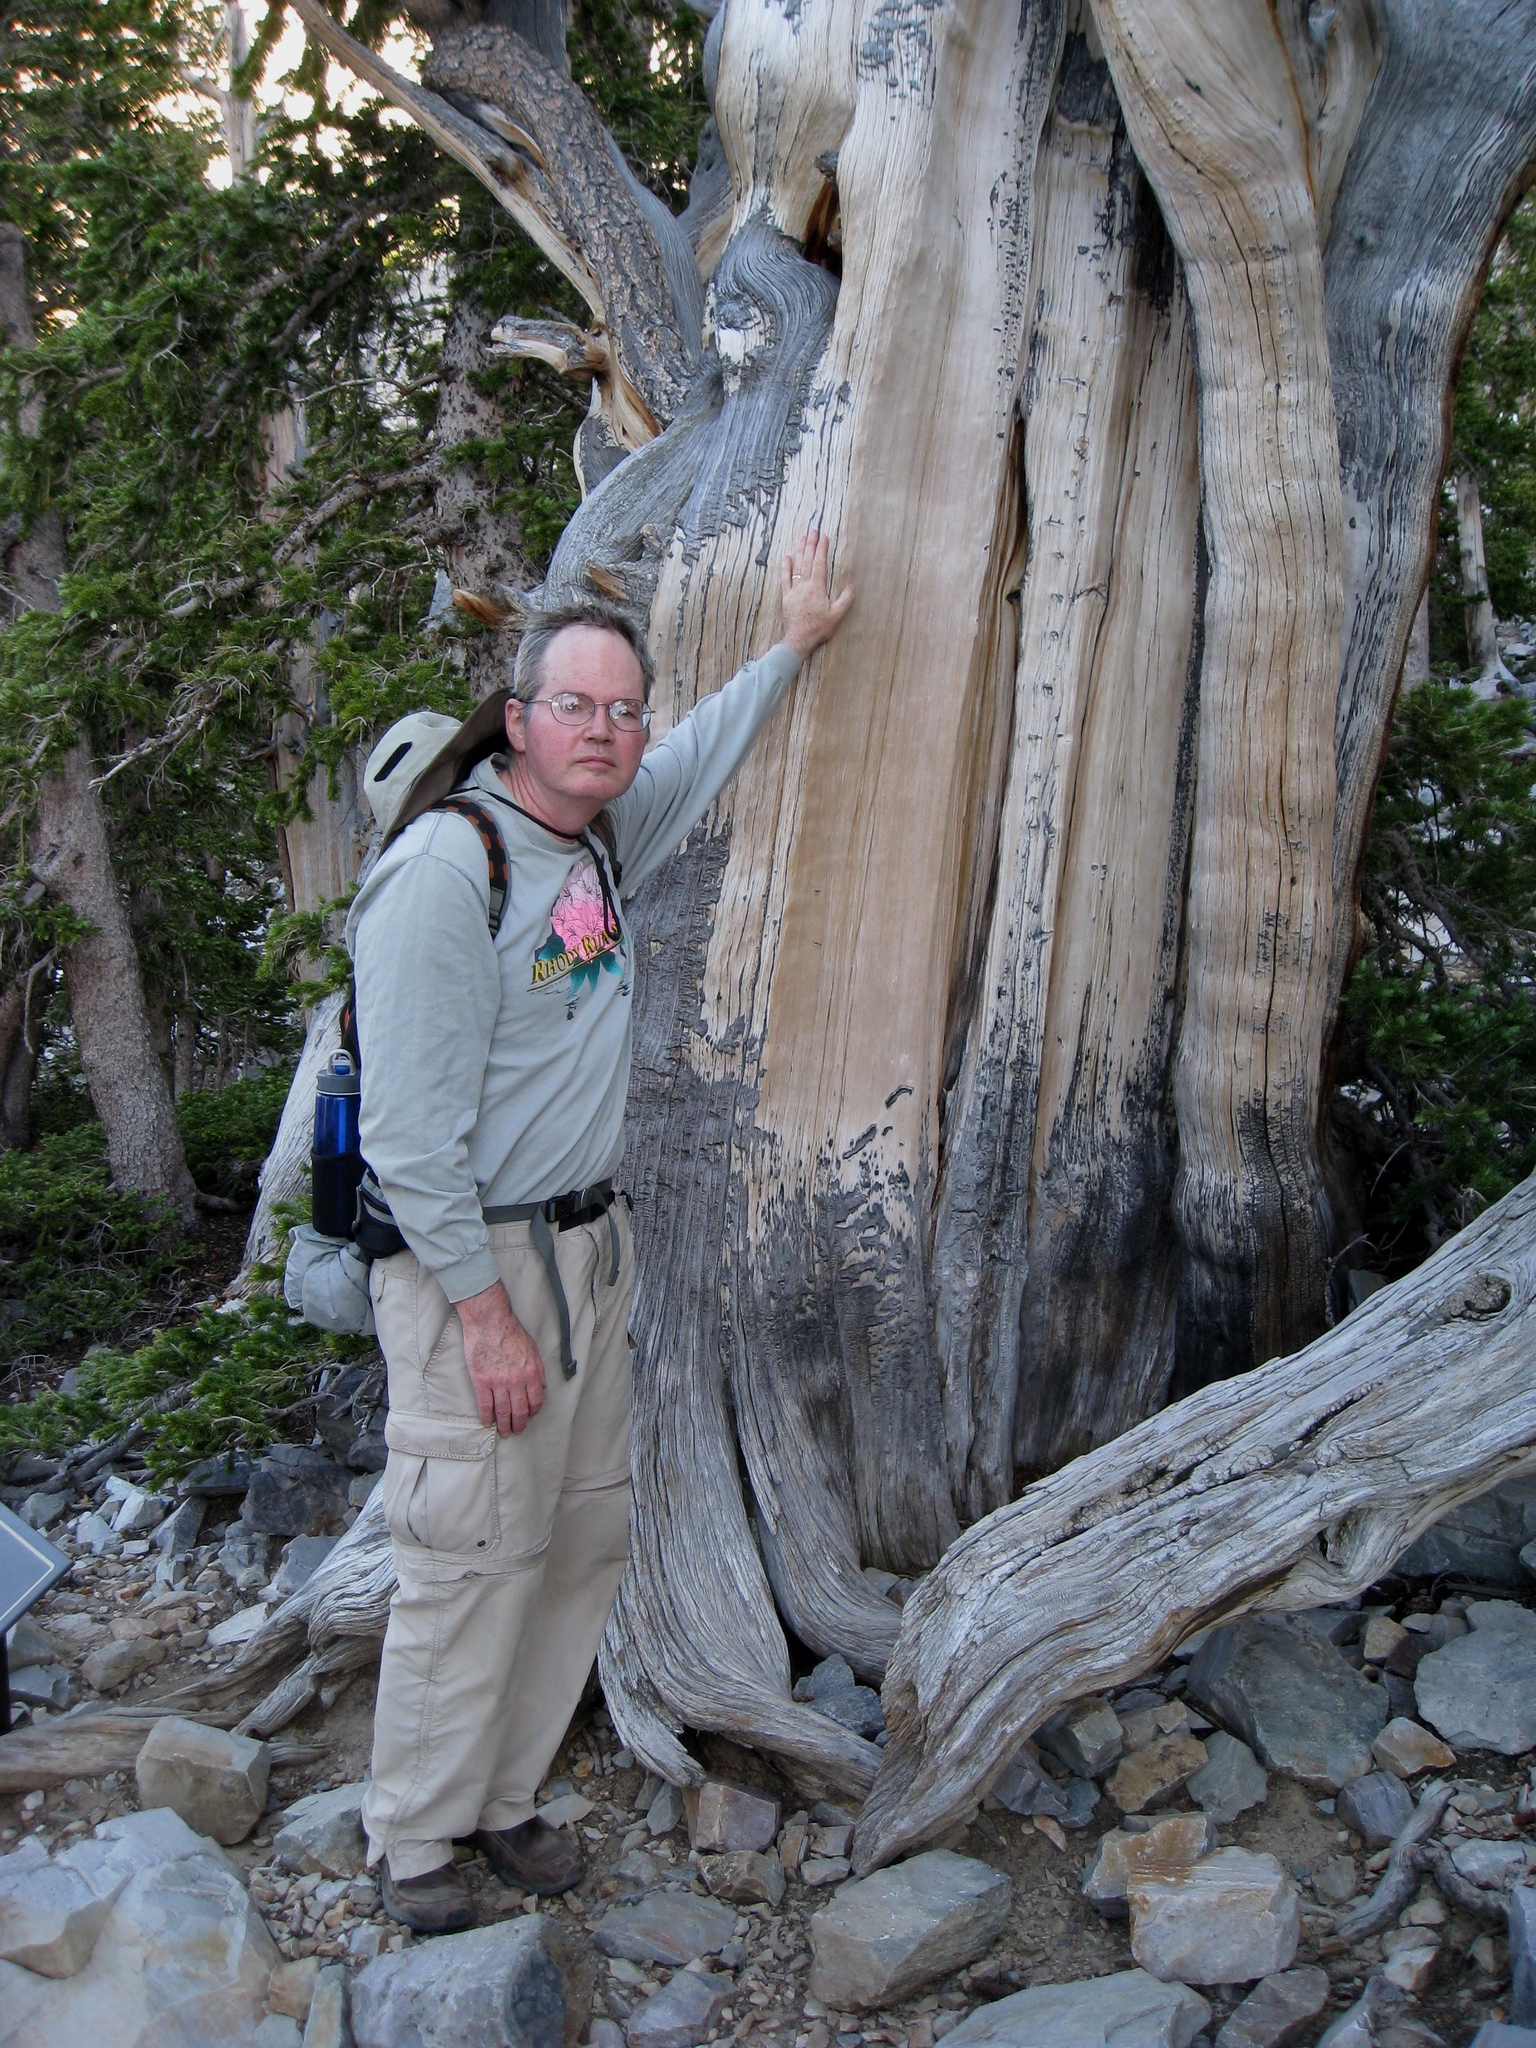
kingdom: Plantae
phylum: Tracheophyta
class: Pinopsida
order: Pinales
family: Pinaceae
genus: Pinus
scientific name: Pinus longaeva
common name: Intermountain bristlecone pine
